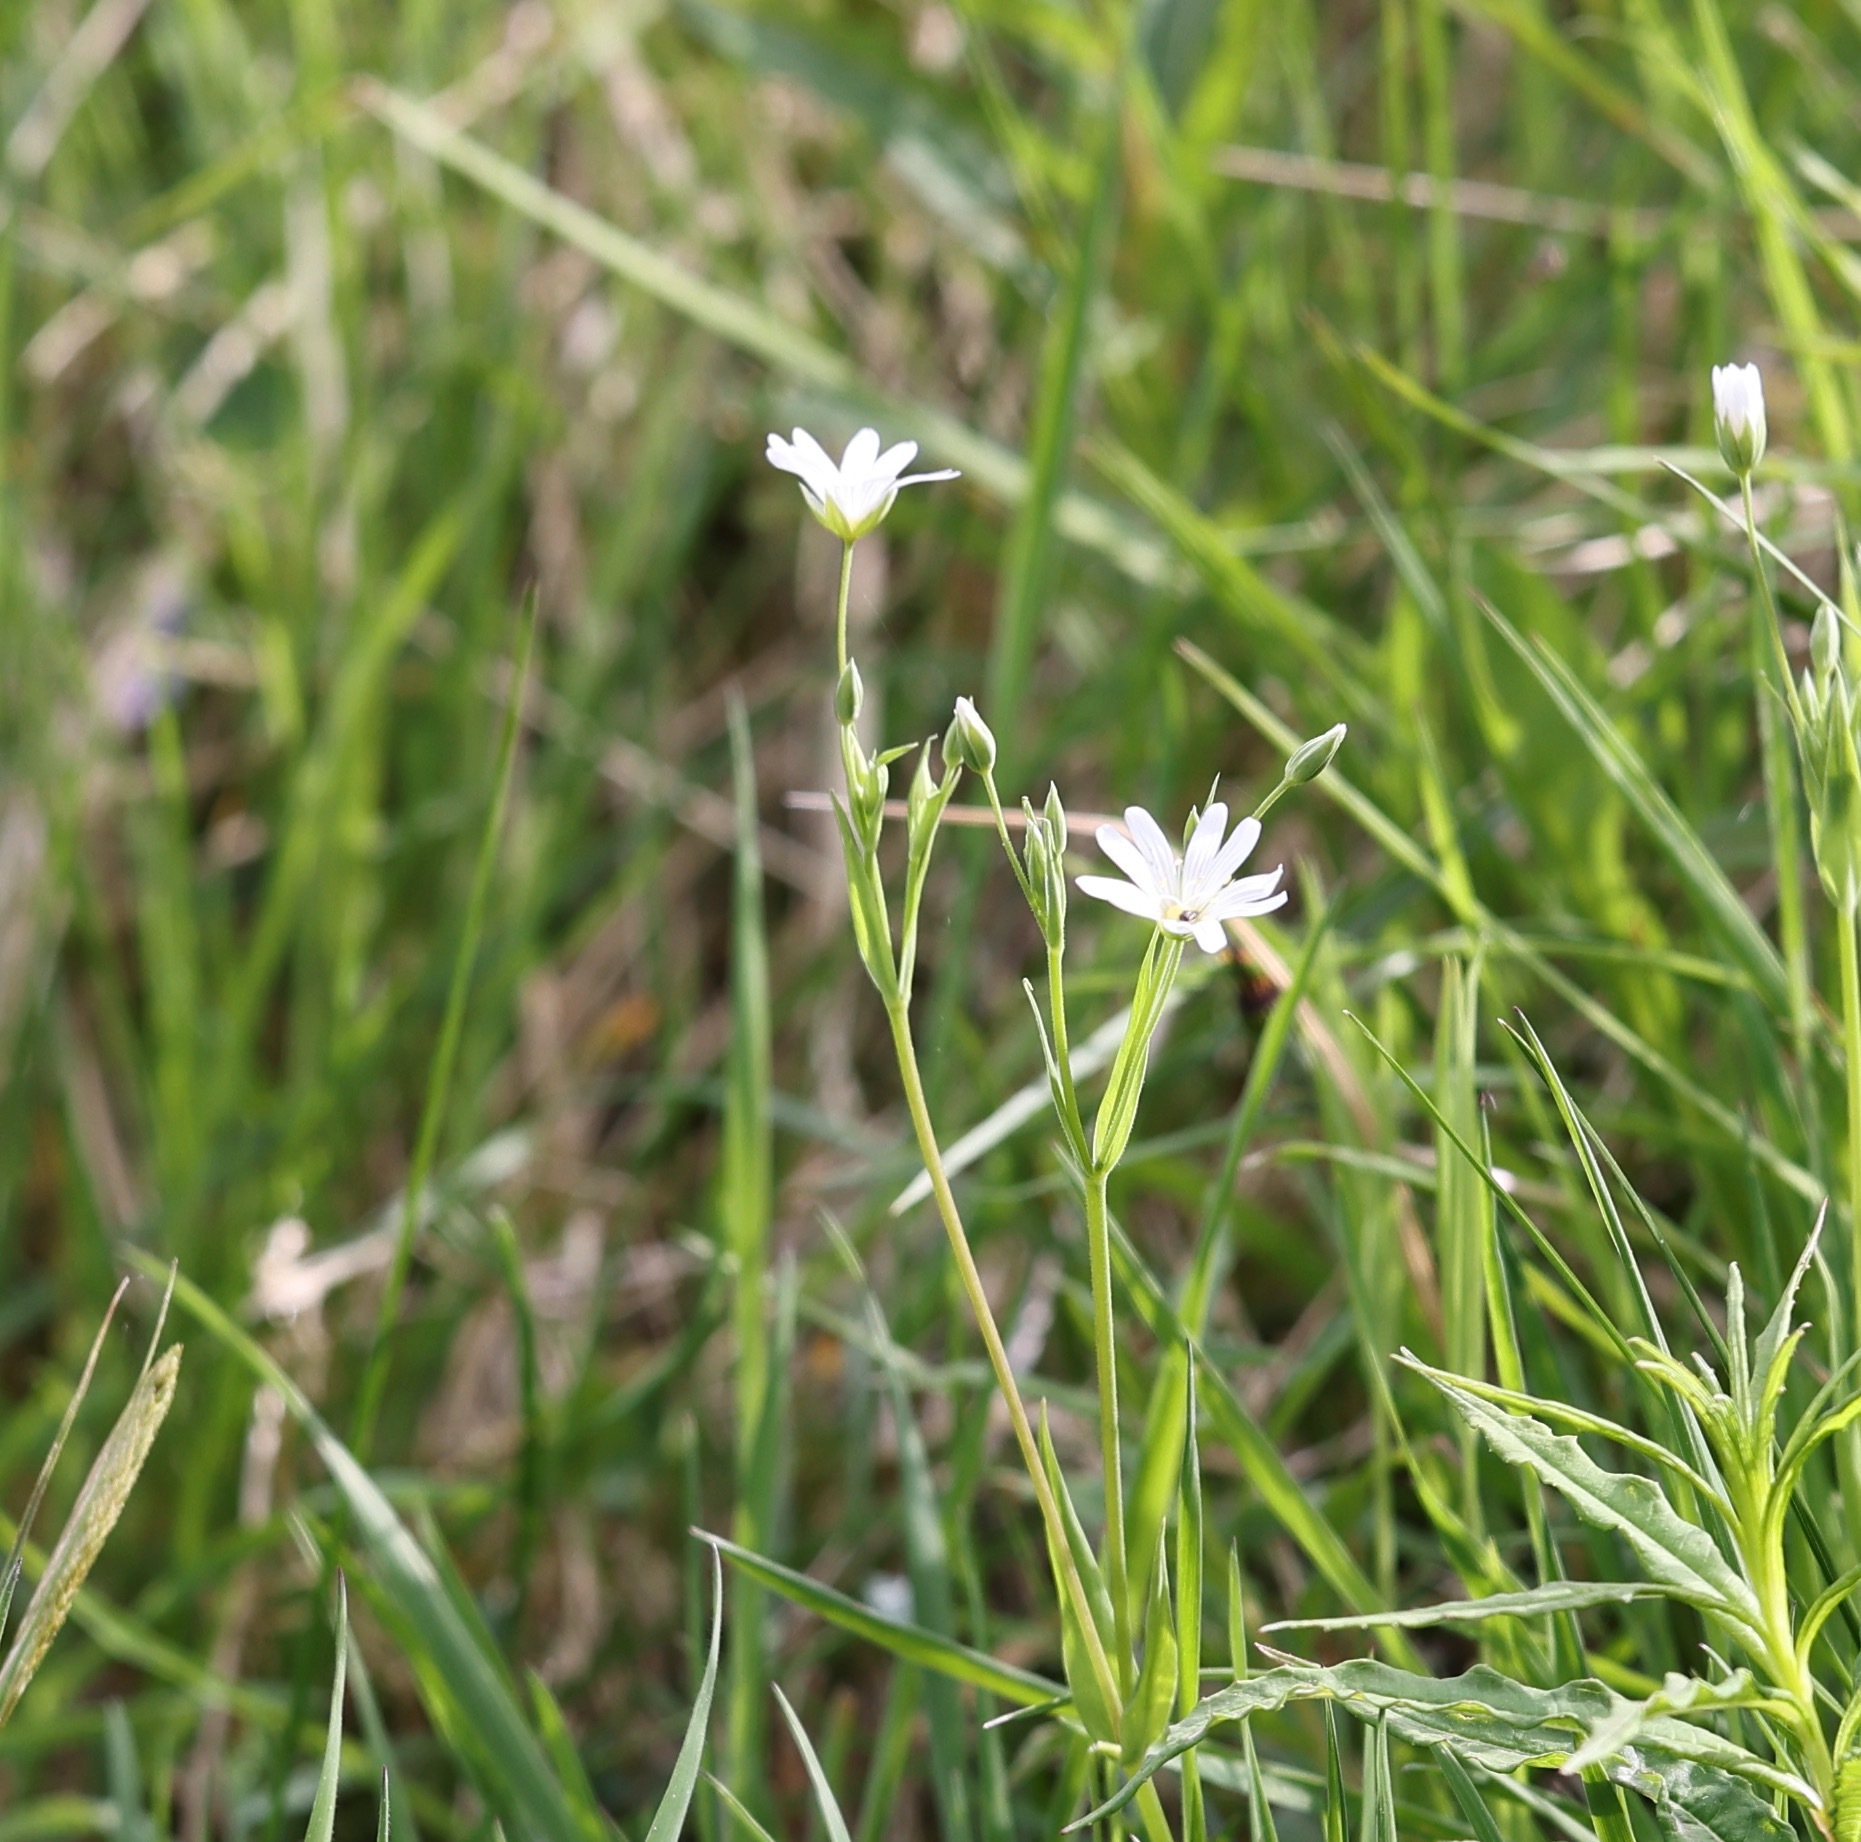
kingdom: Plantae
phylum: Tracheophyta
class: Magnoliopsida
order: Caryophyllales
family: Caryophyllaceae
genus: Rabelera
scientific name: Rabelera holostea
